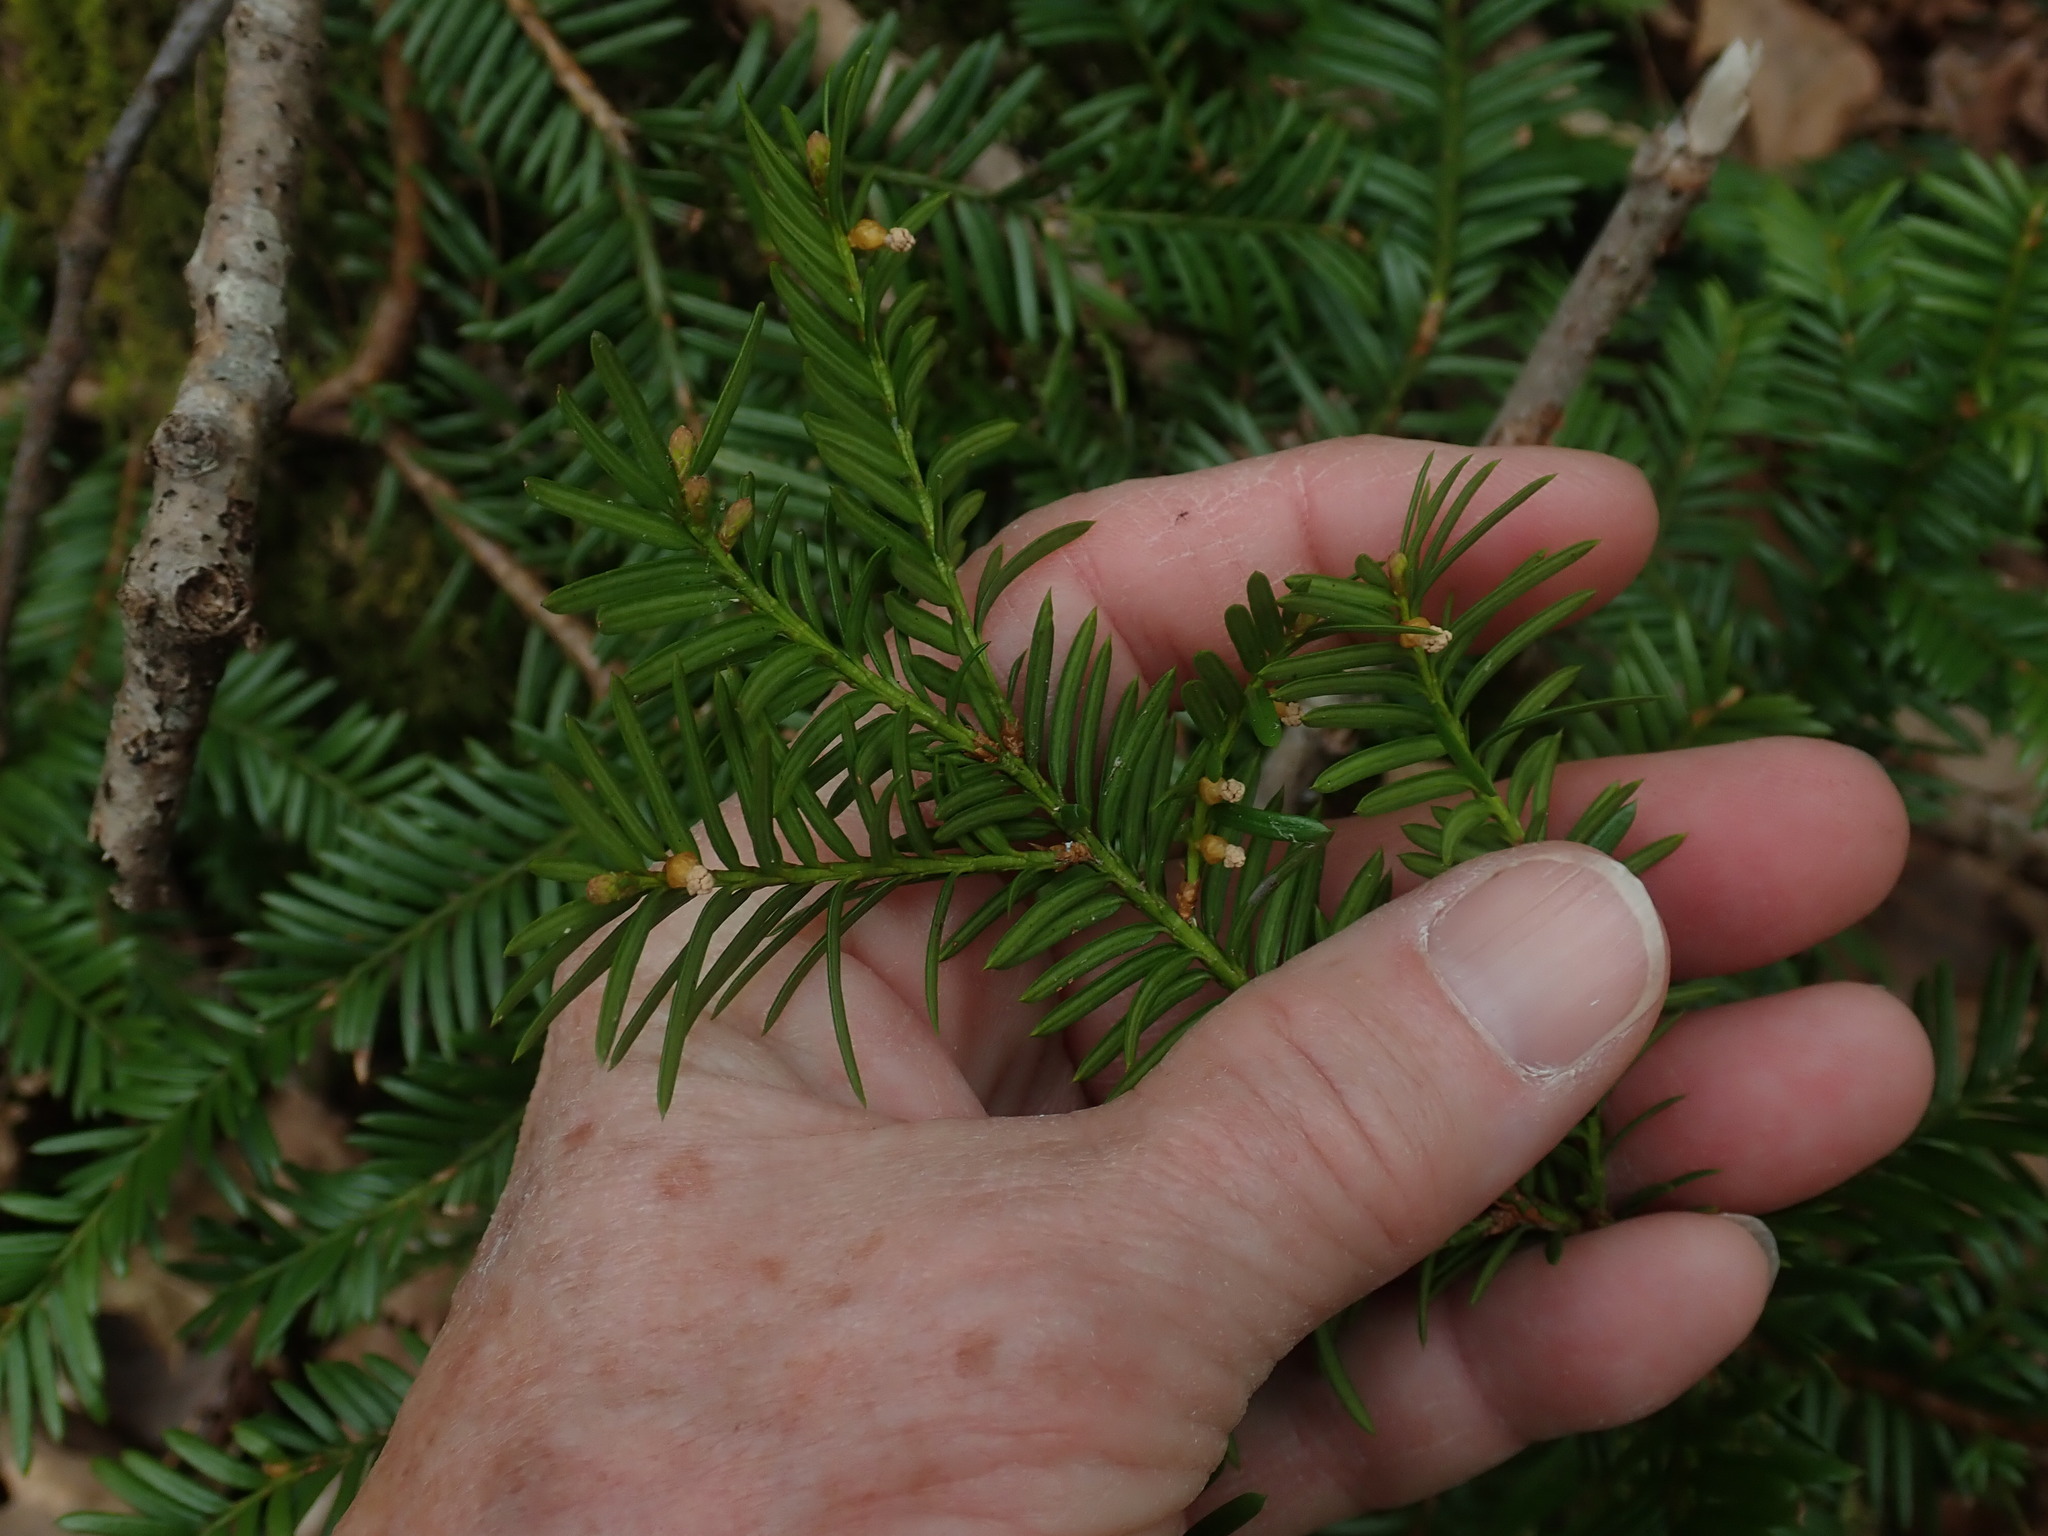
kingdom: Plantae
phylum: Tracheophyta
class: Pinopsida
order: Pinales
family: Taxaceae
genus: Taxus
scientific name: Taxus canadensis
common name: American yew
